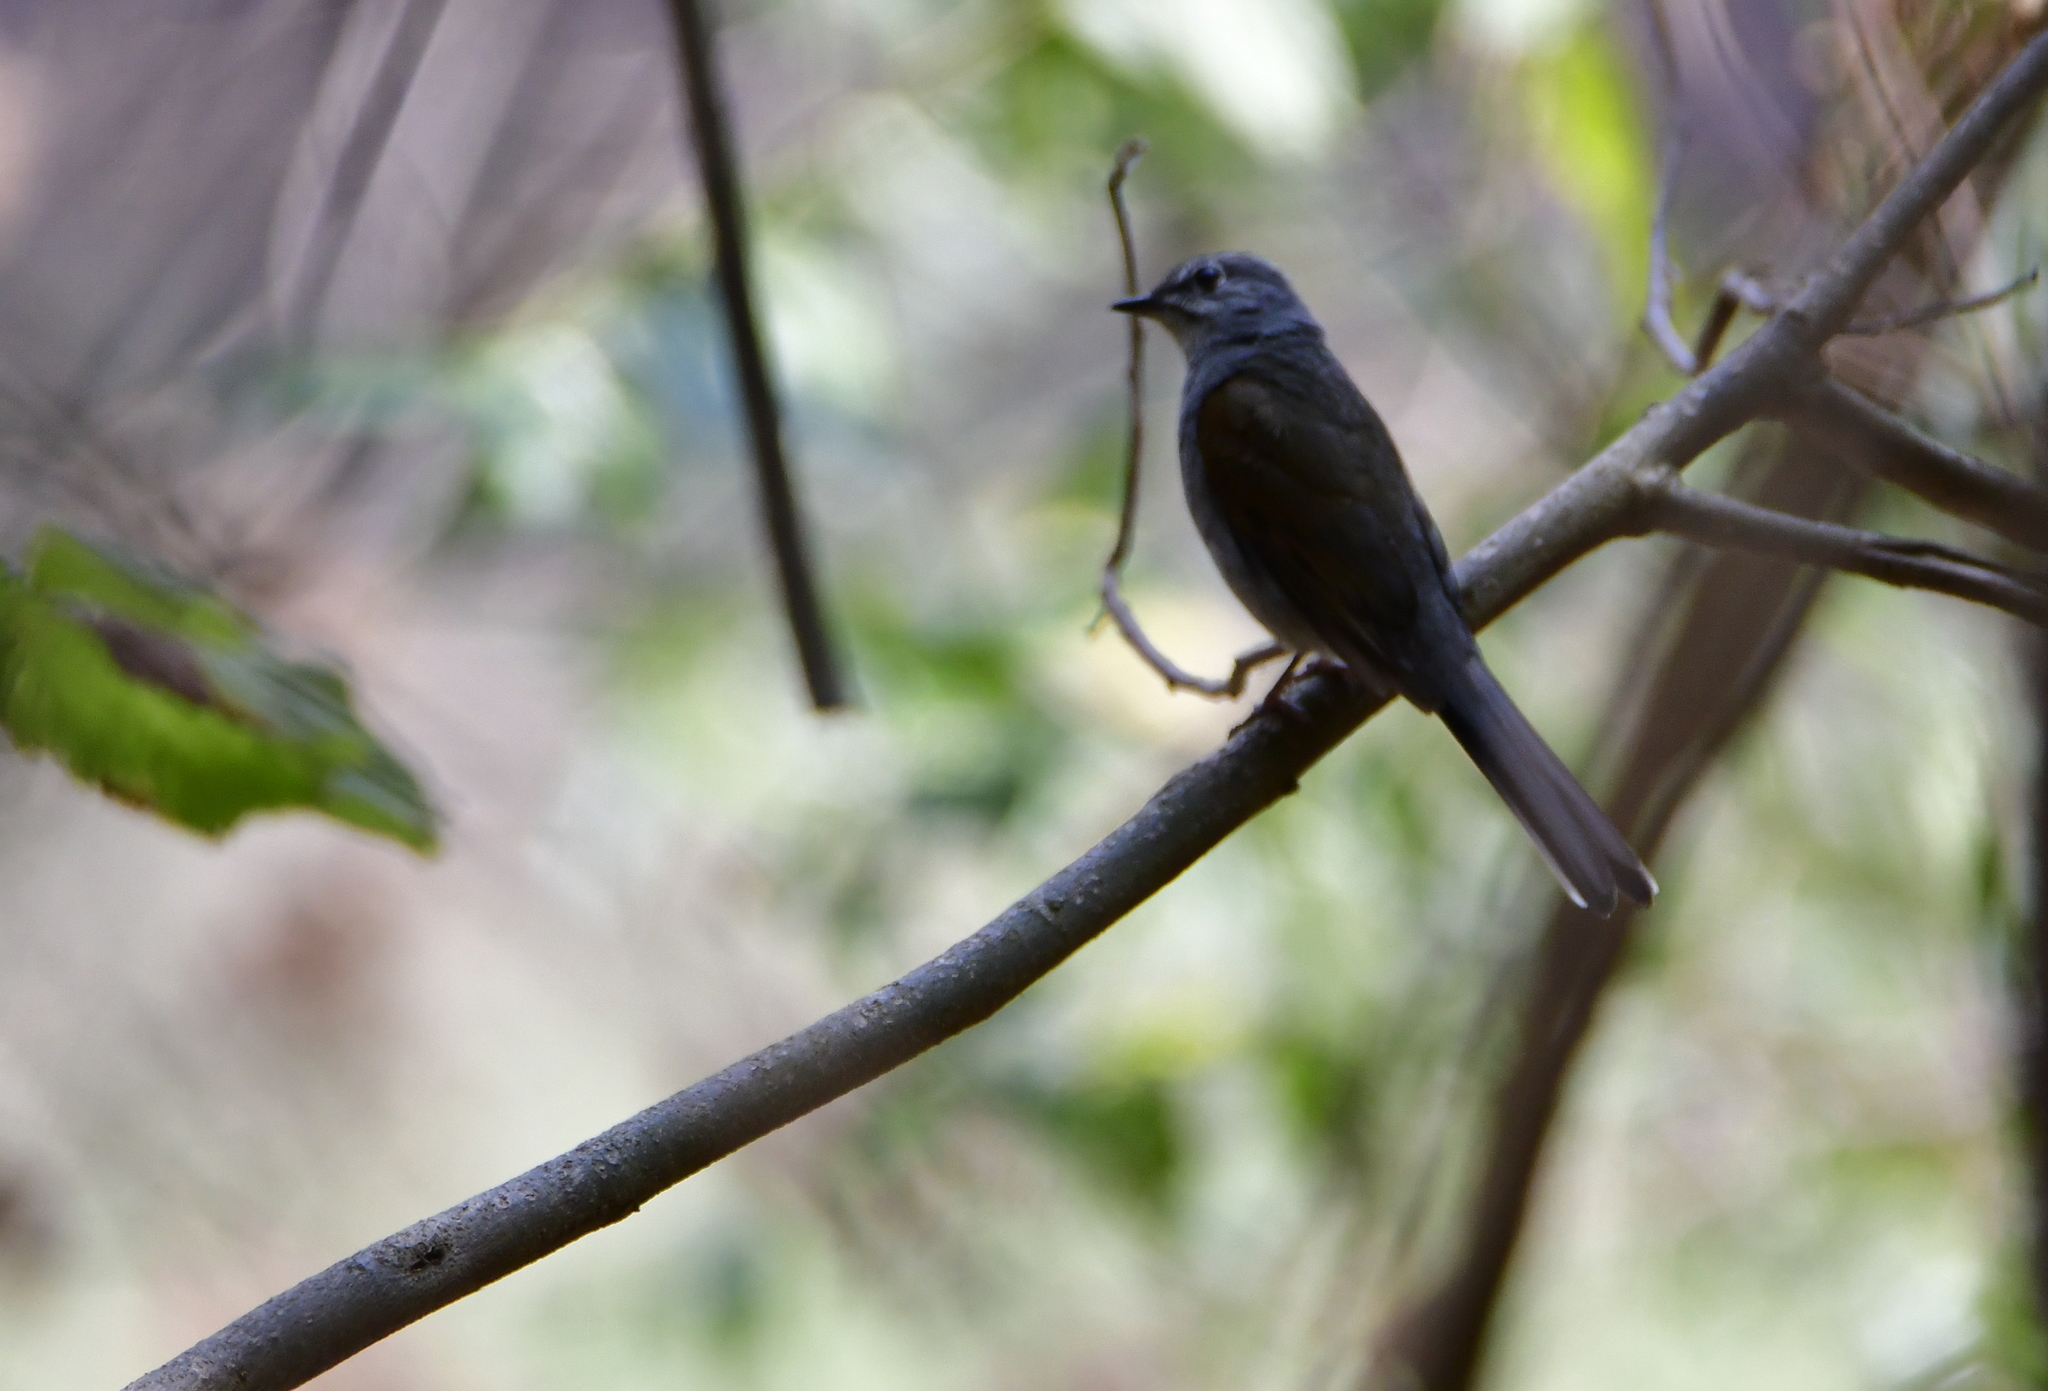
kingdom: Animalia
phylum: Chordata
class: Aves
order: Passeriformes
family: Turdidae
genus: Myadestes
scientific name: Myadestes occidentalis
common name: Brown-backed solitaire
